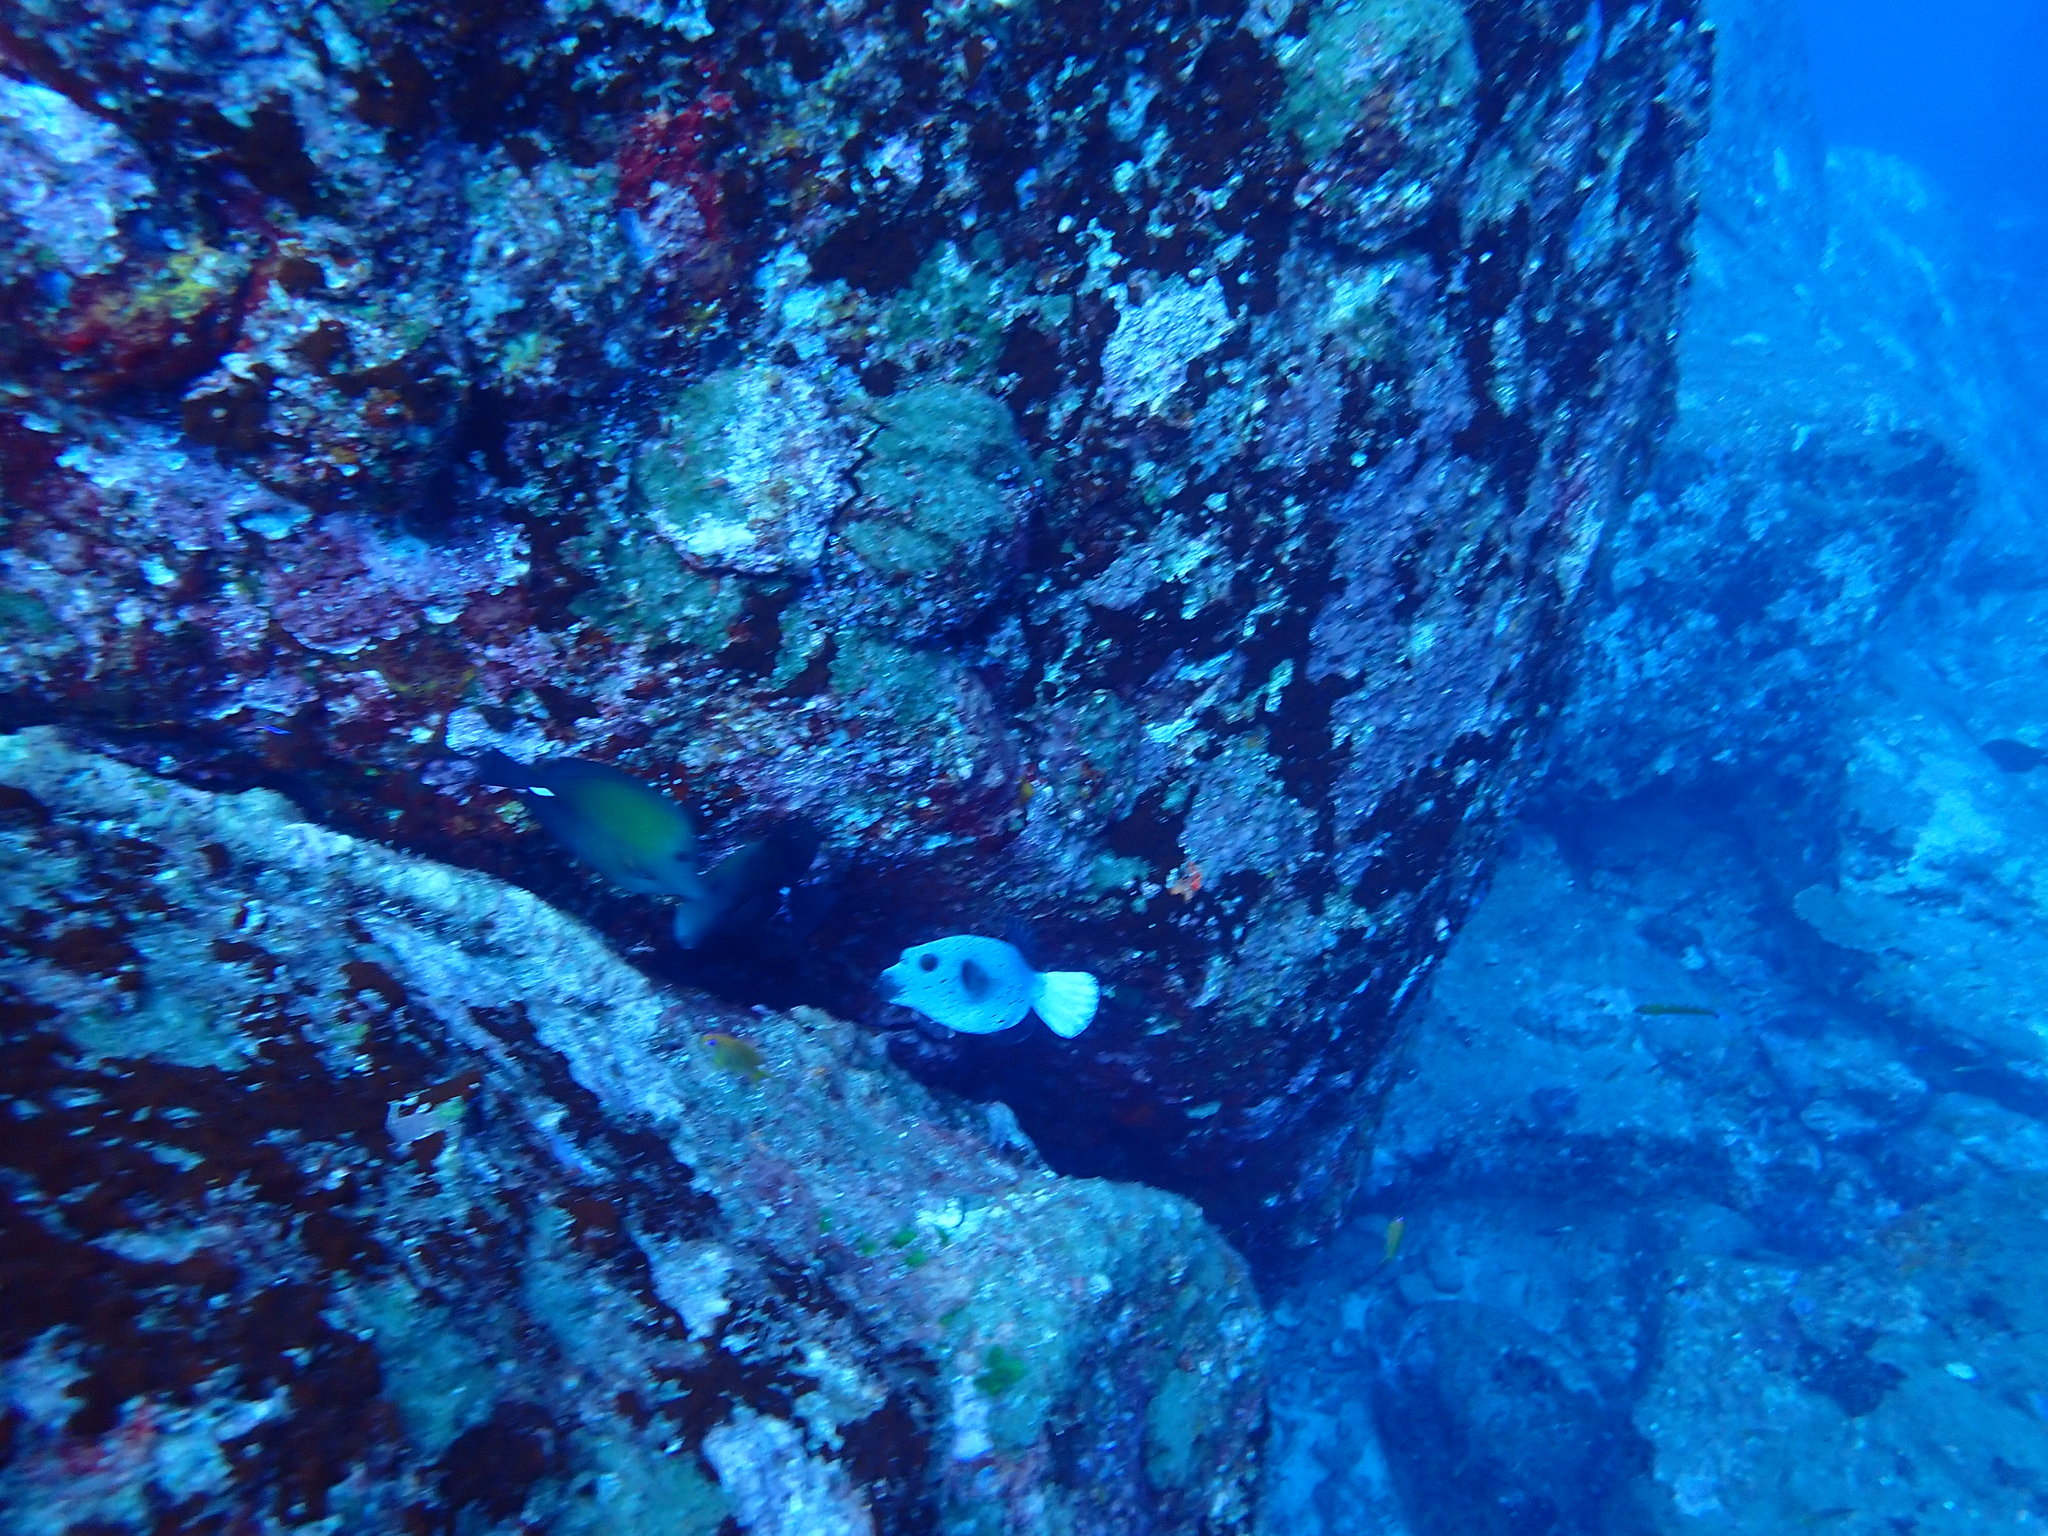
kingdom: Animalia
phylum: Chordata
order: Perciformes
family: Acanthuridae
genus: Zebrasoma
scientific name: Zebrasoma scopas
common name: Twotone tang
